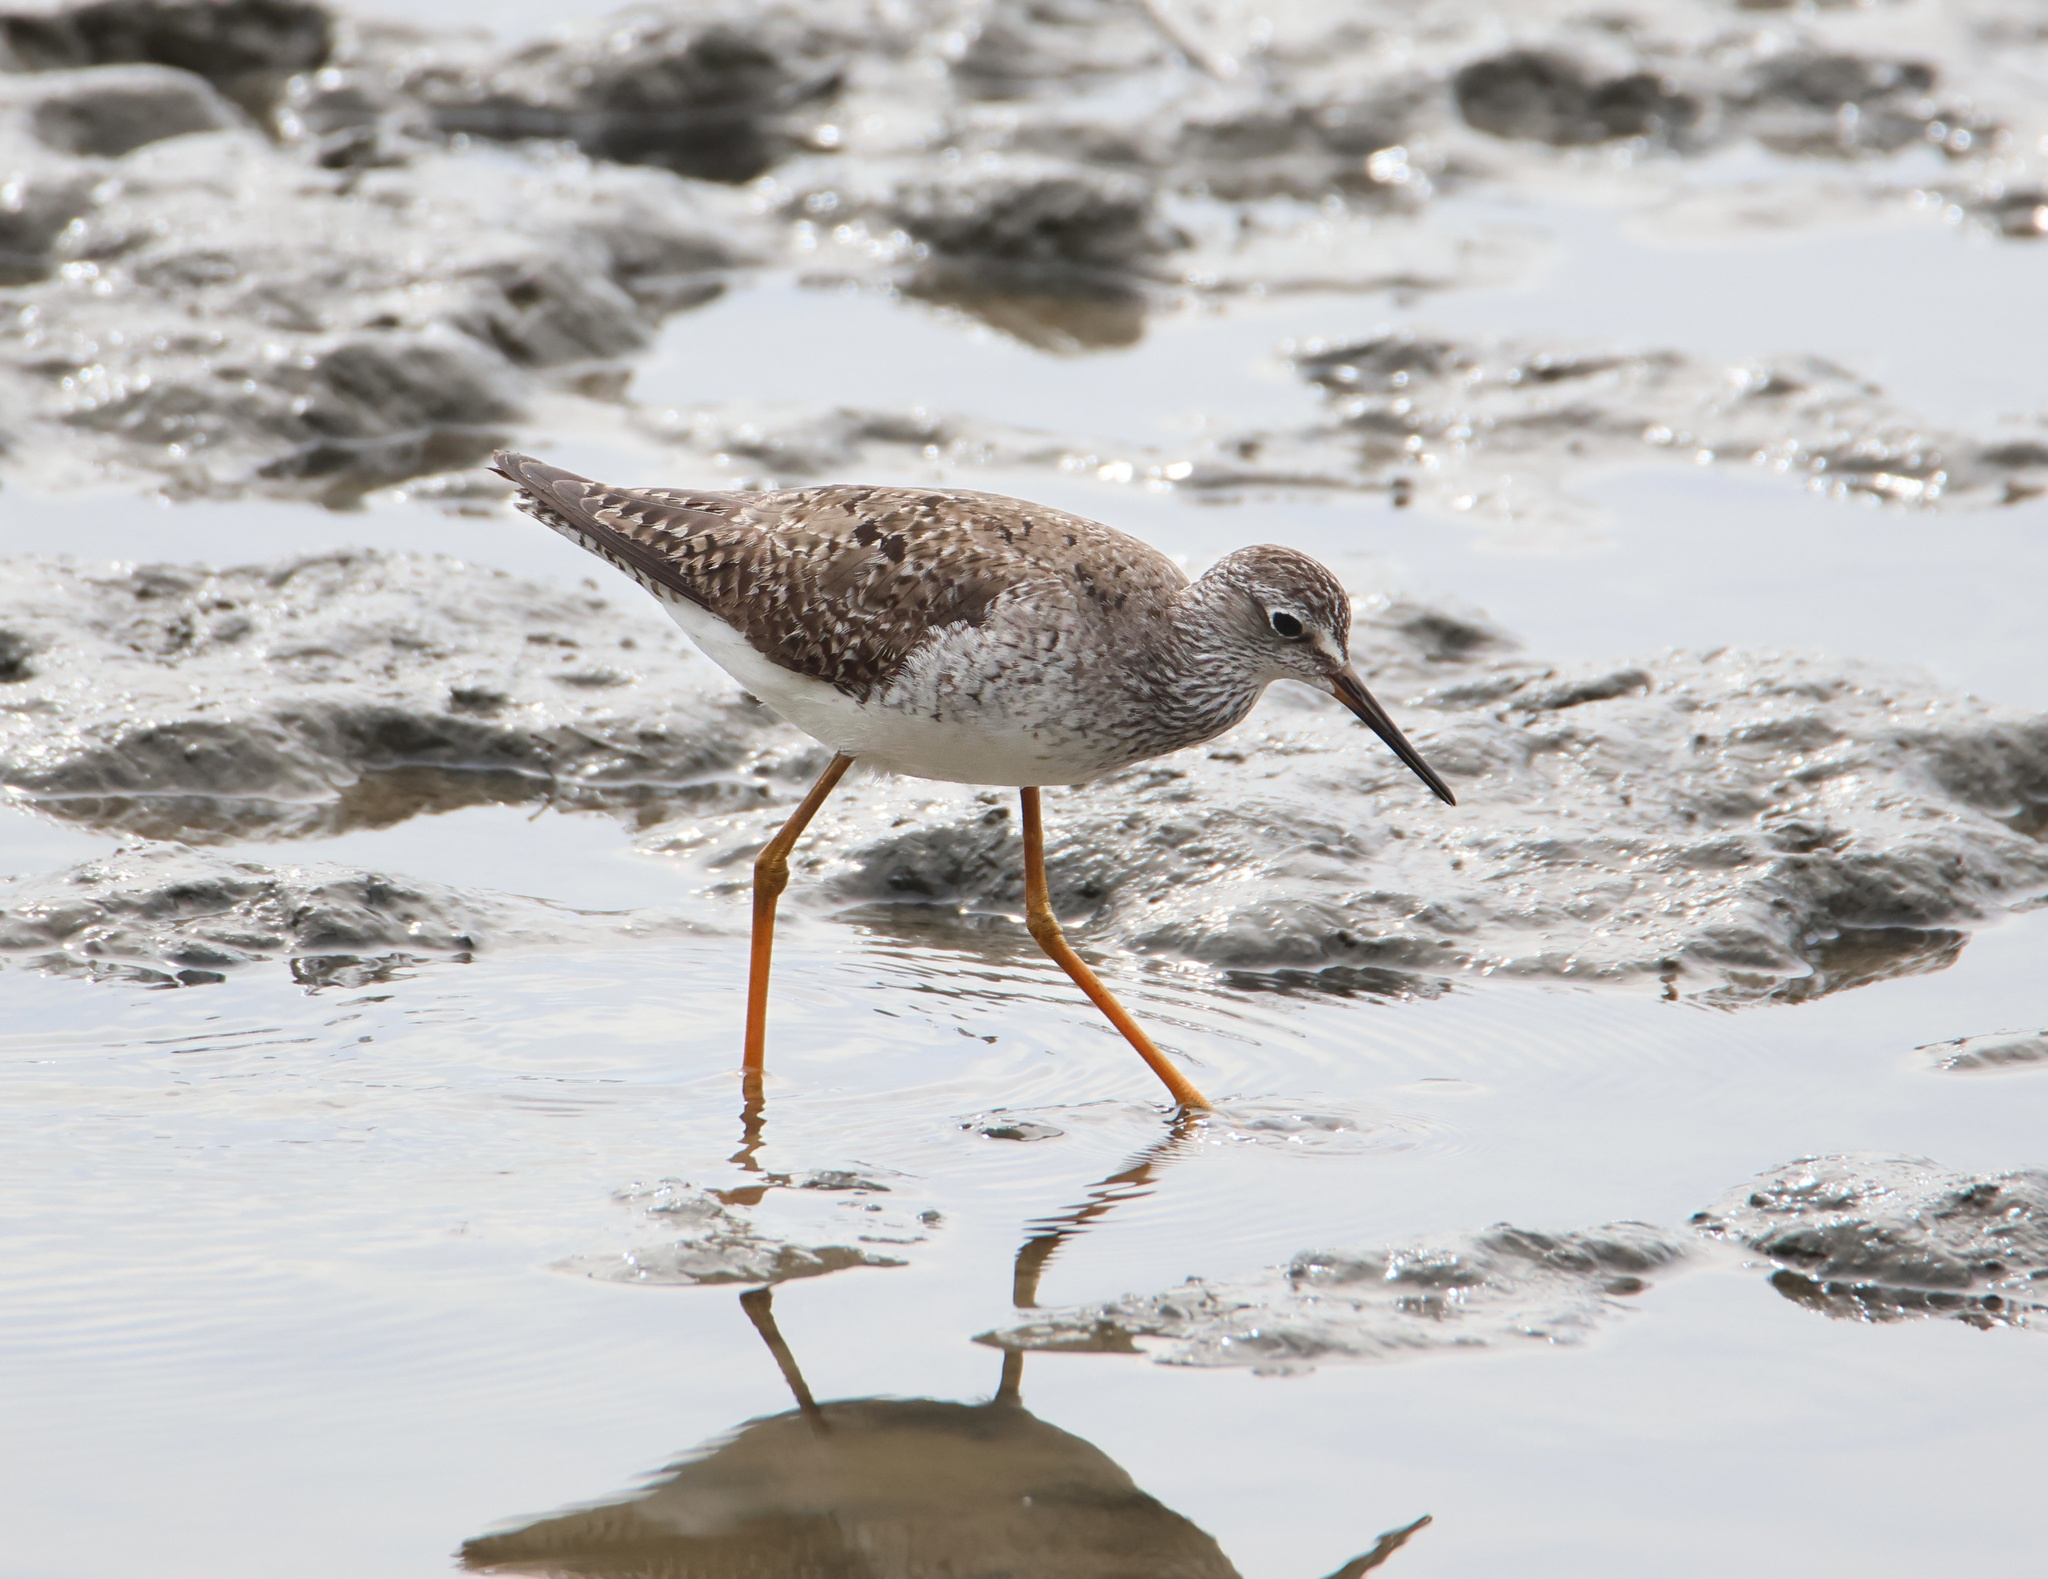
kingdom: Animalia
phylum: Chordata
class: Aves
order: Charadriiformes
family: Scolopacidae
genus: Tringa
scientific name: Tringa flavipes
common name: Lesser yellowlegs
